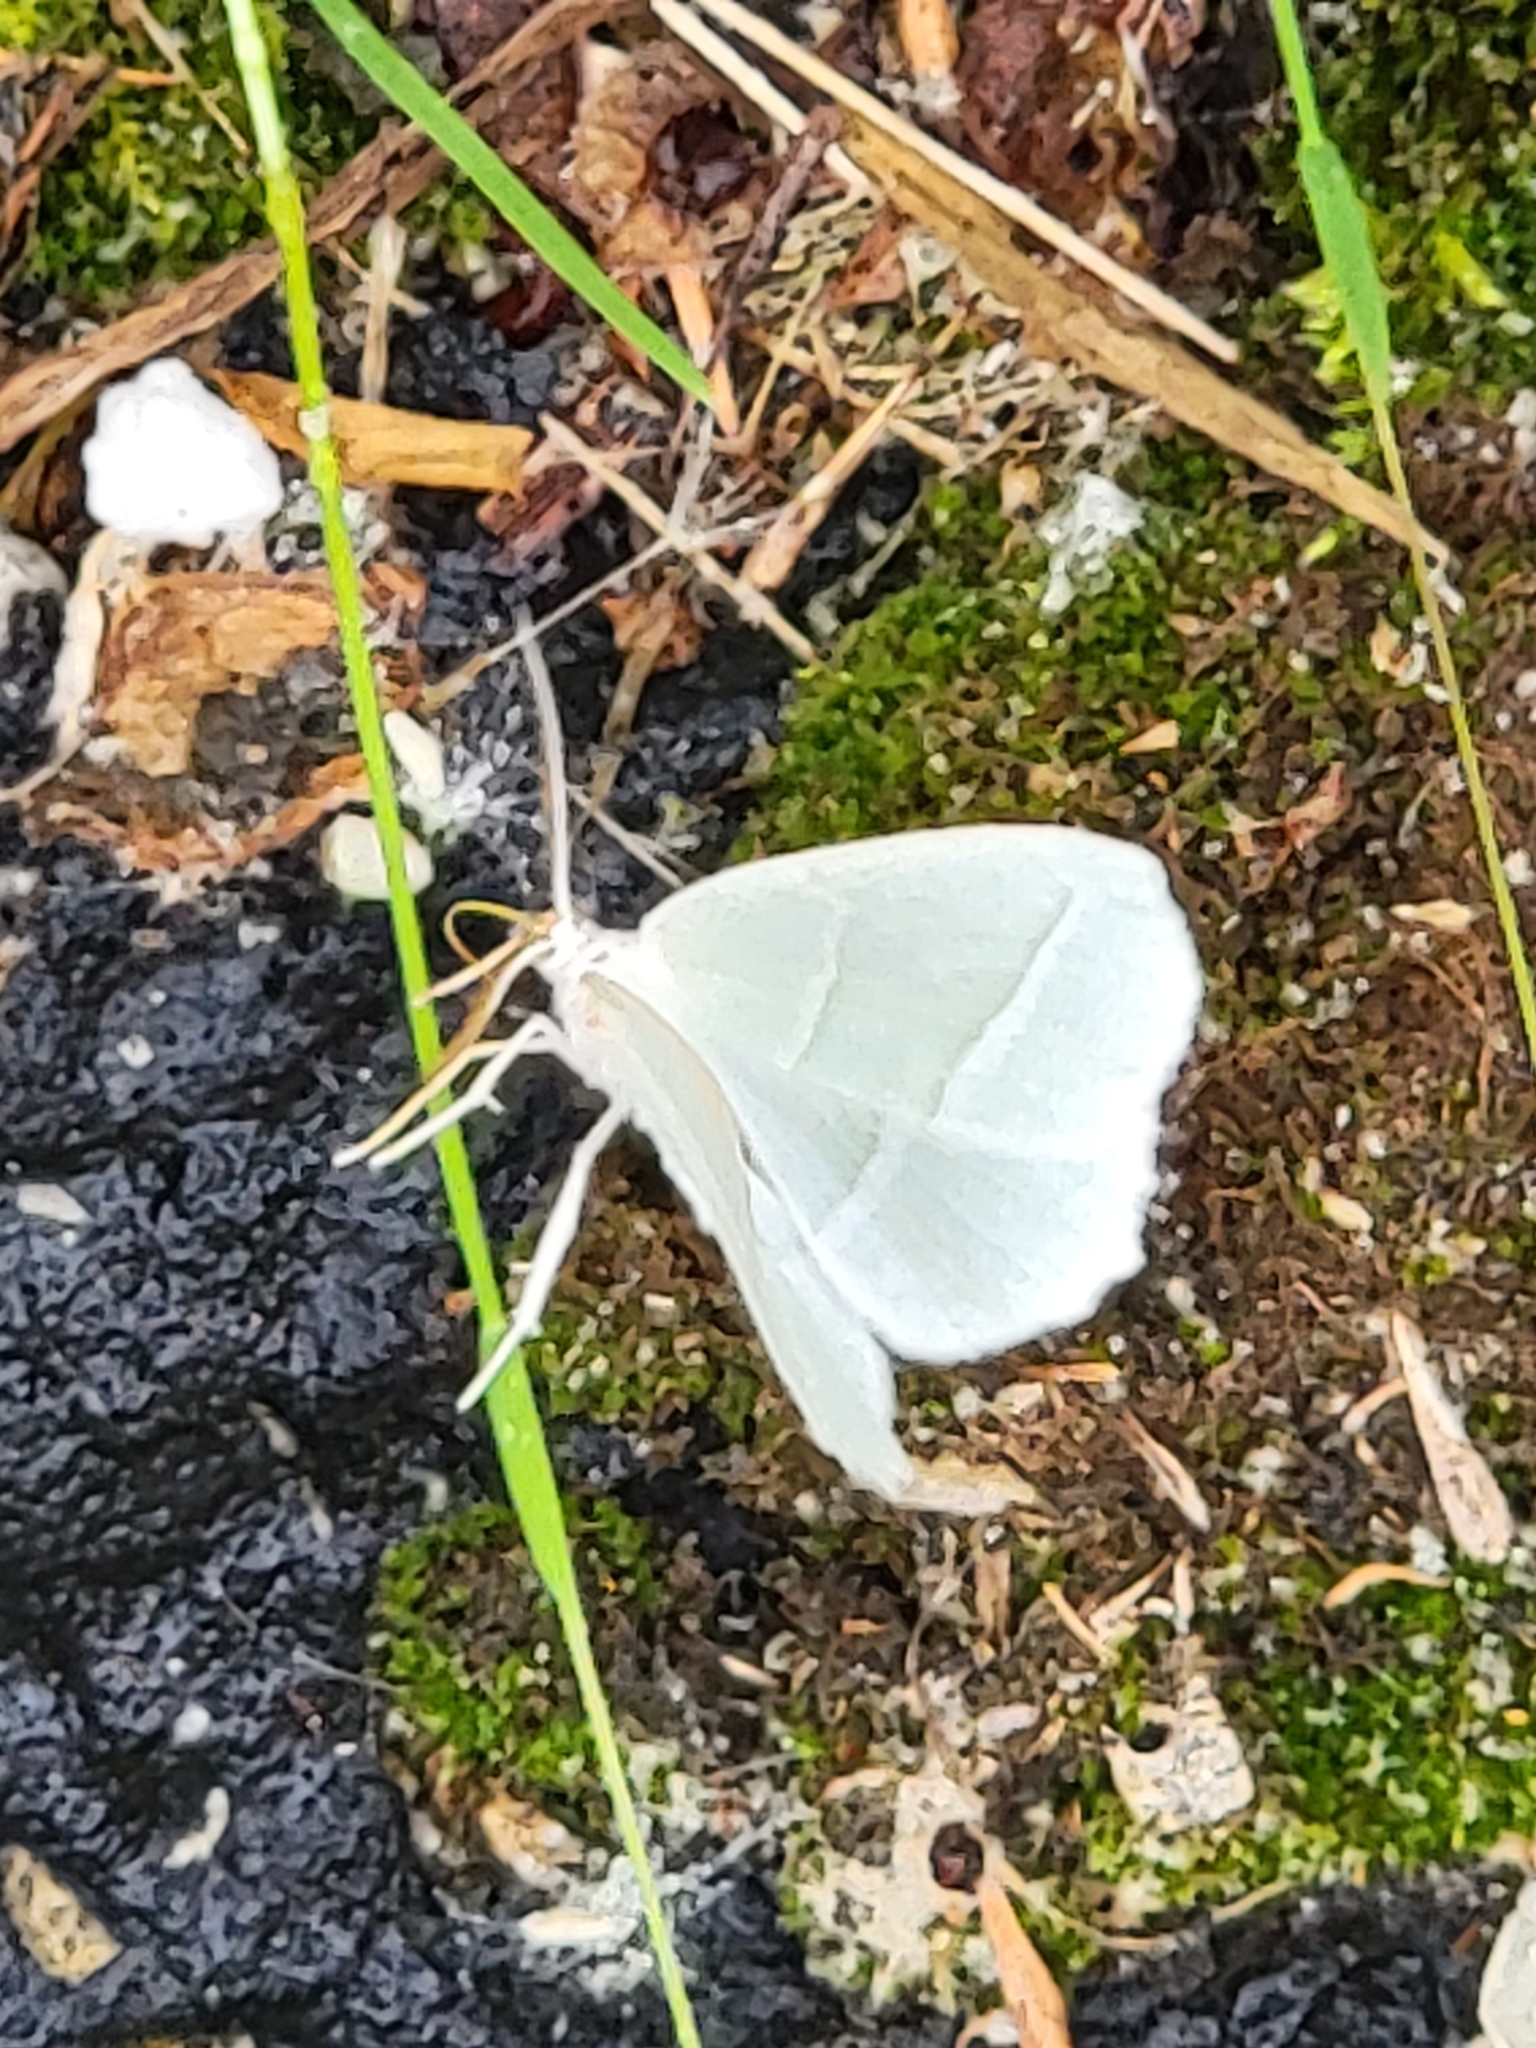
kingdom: Animalia
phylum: Arthropoda
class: Insecta
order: Lepidoptera
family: Geometridae
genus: Campaea
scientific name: Campaea perlata
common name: Fringed looper
